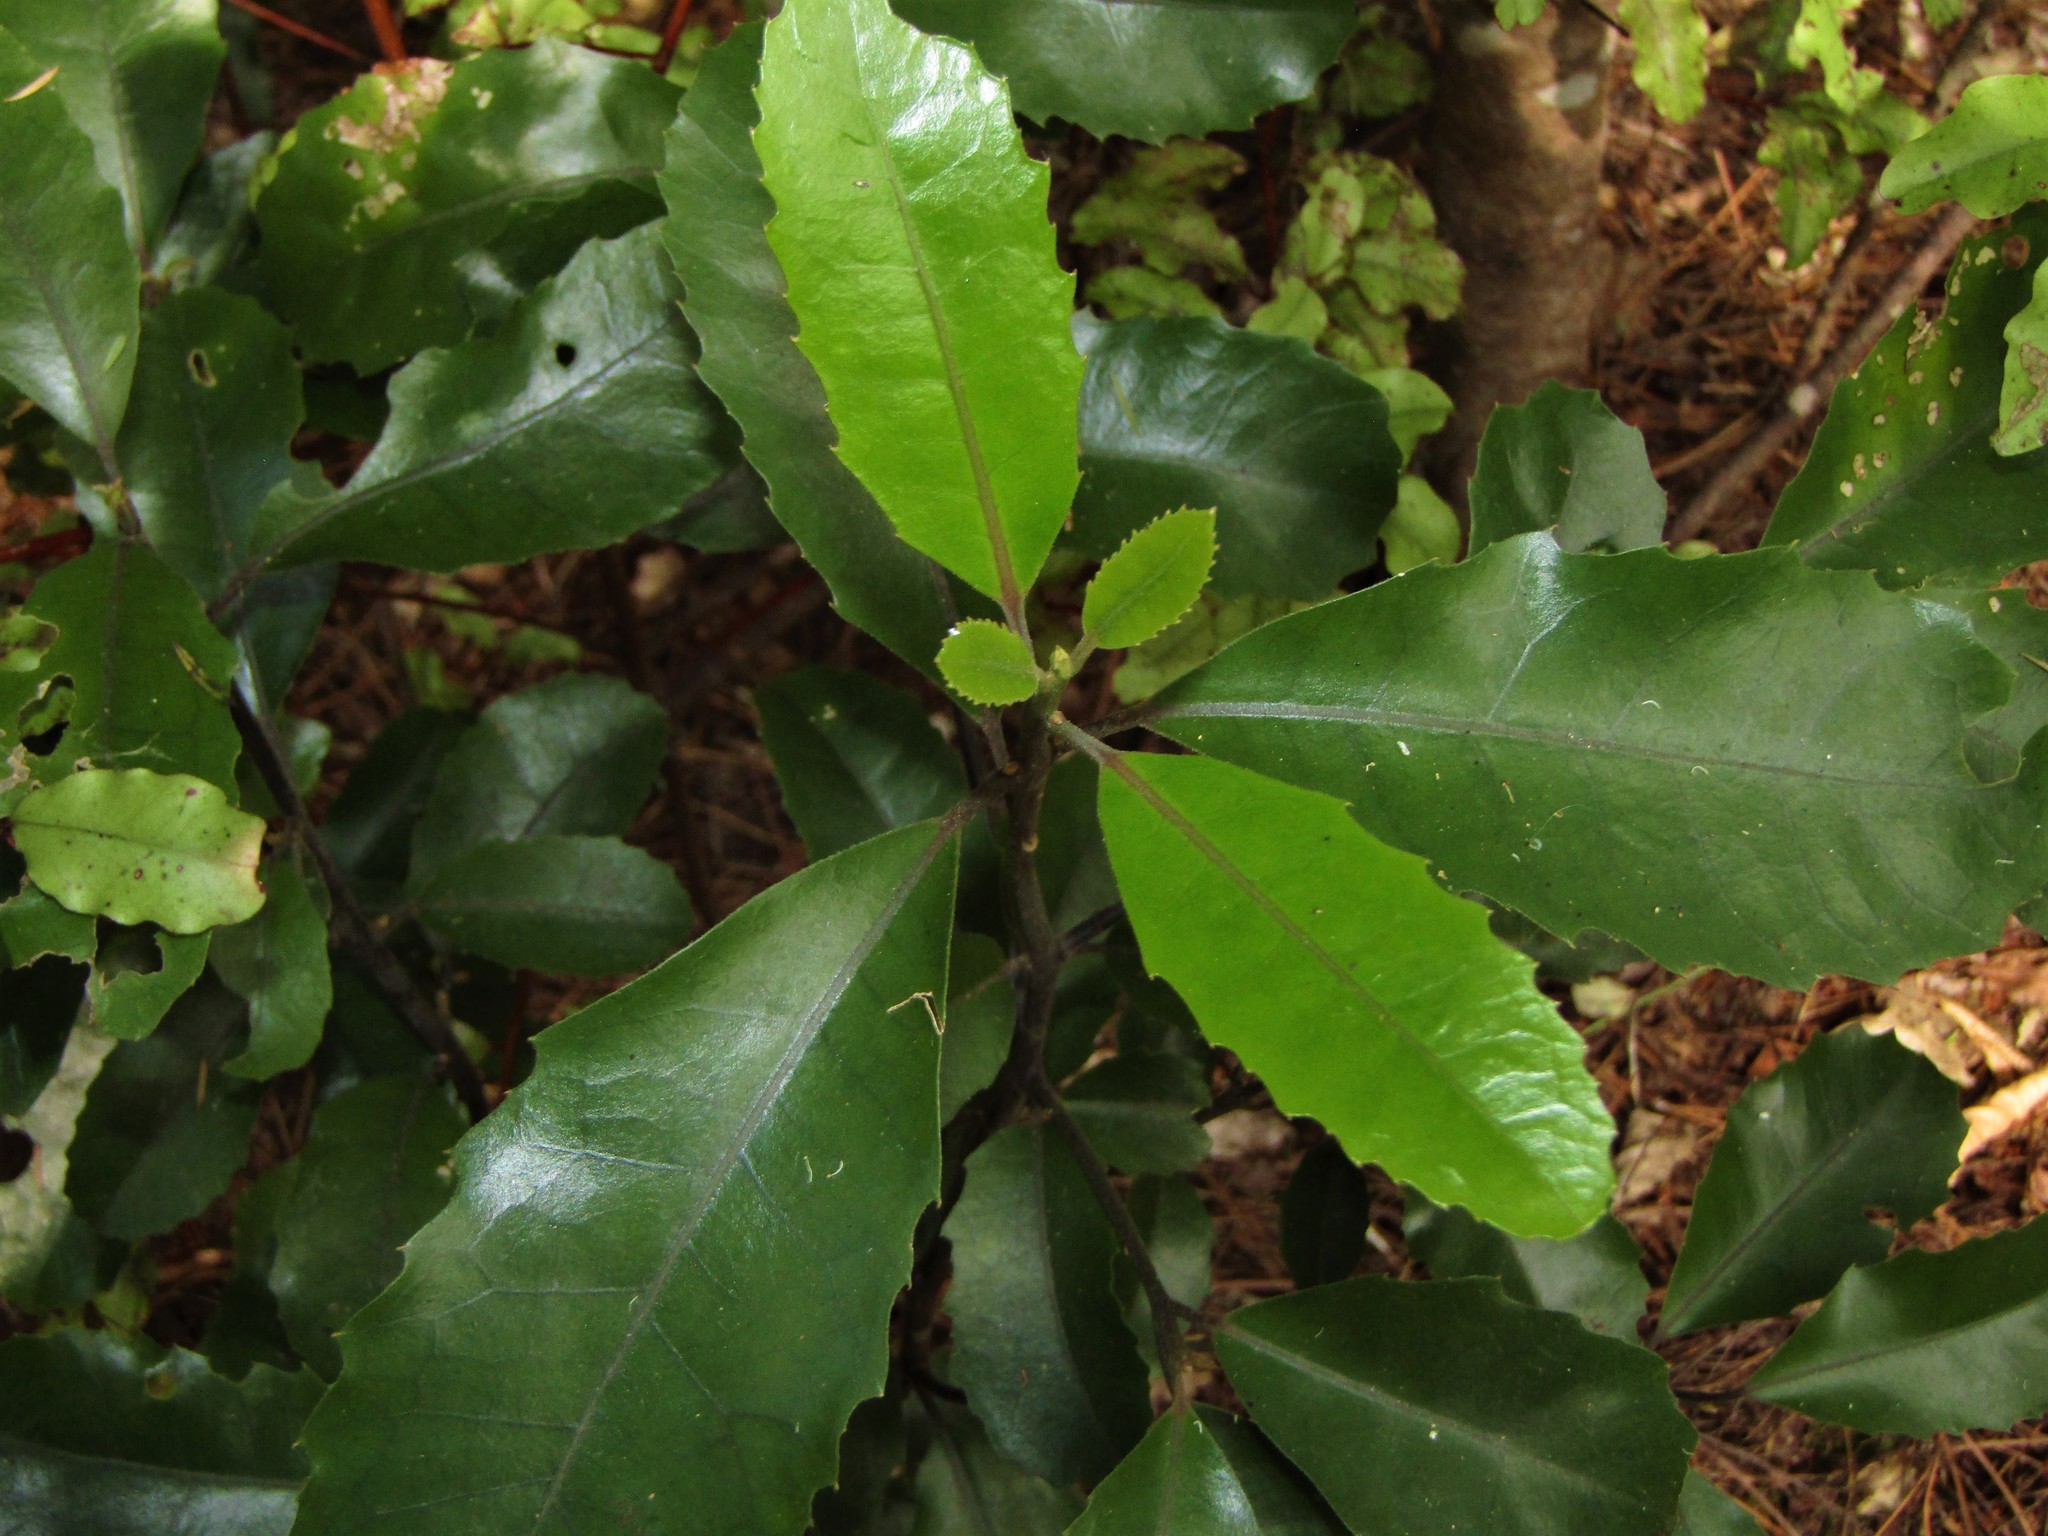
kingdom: Plantae
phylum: Tracheophyta
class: Magnoliopsida
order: Laurales
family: Monimiaceae
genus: Hedycarya
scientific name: Hedycarya arborea
